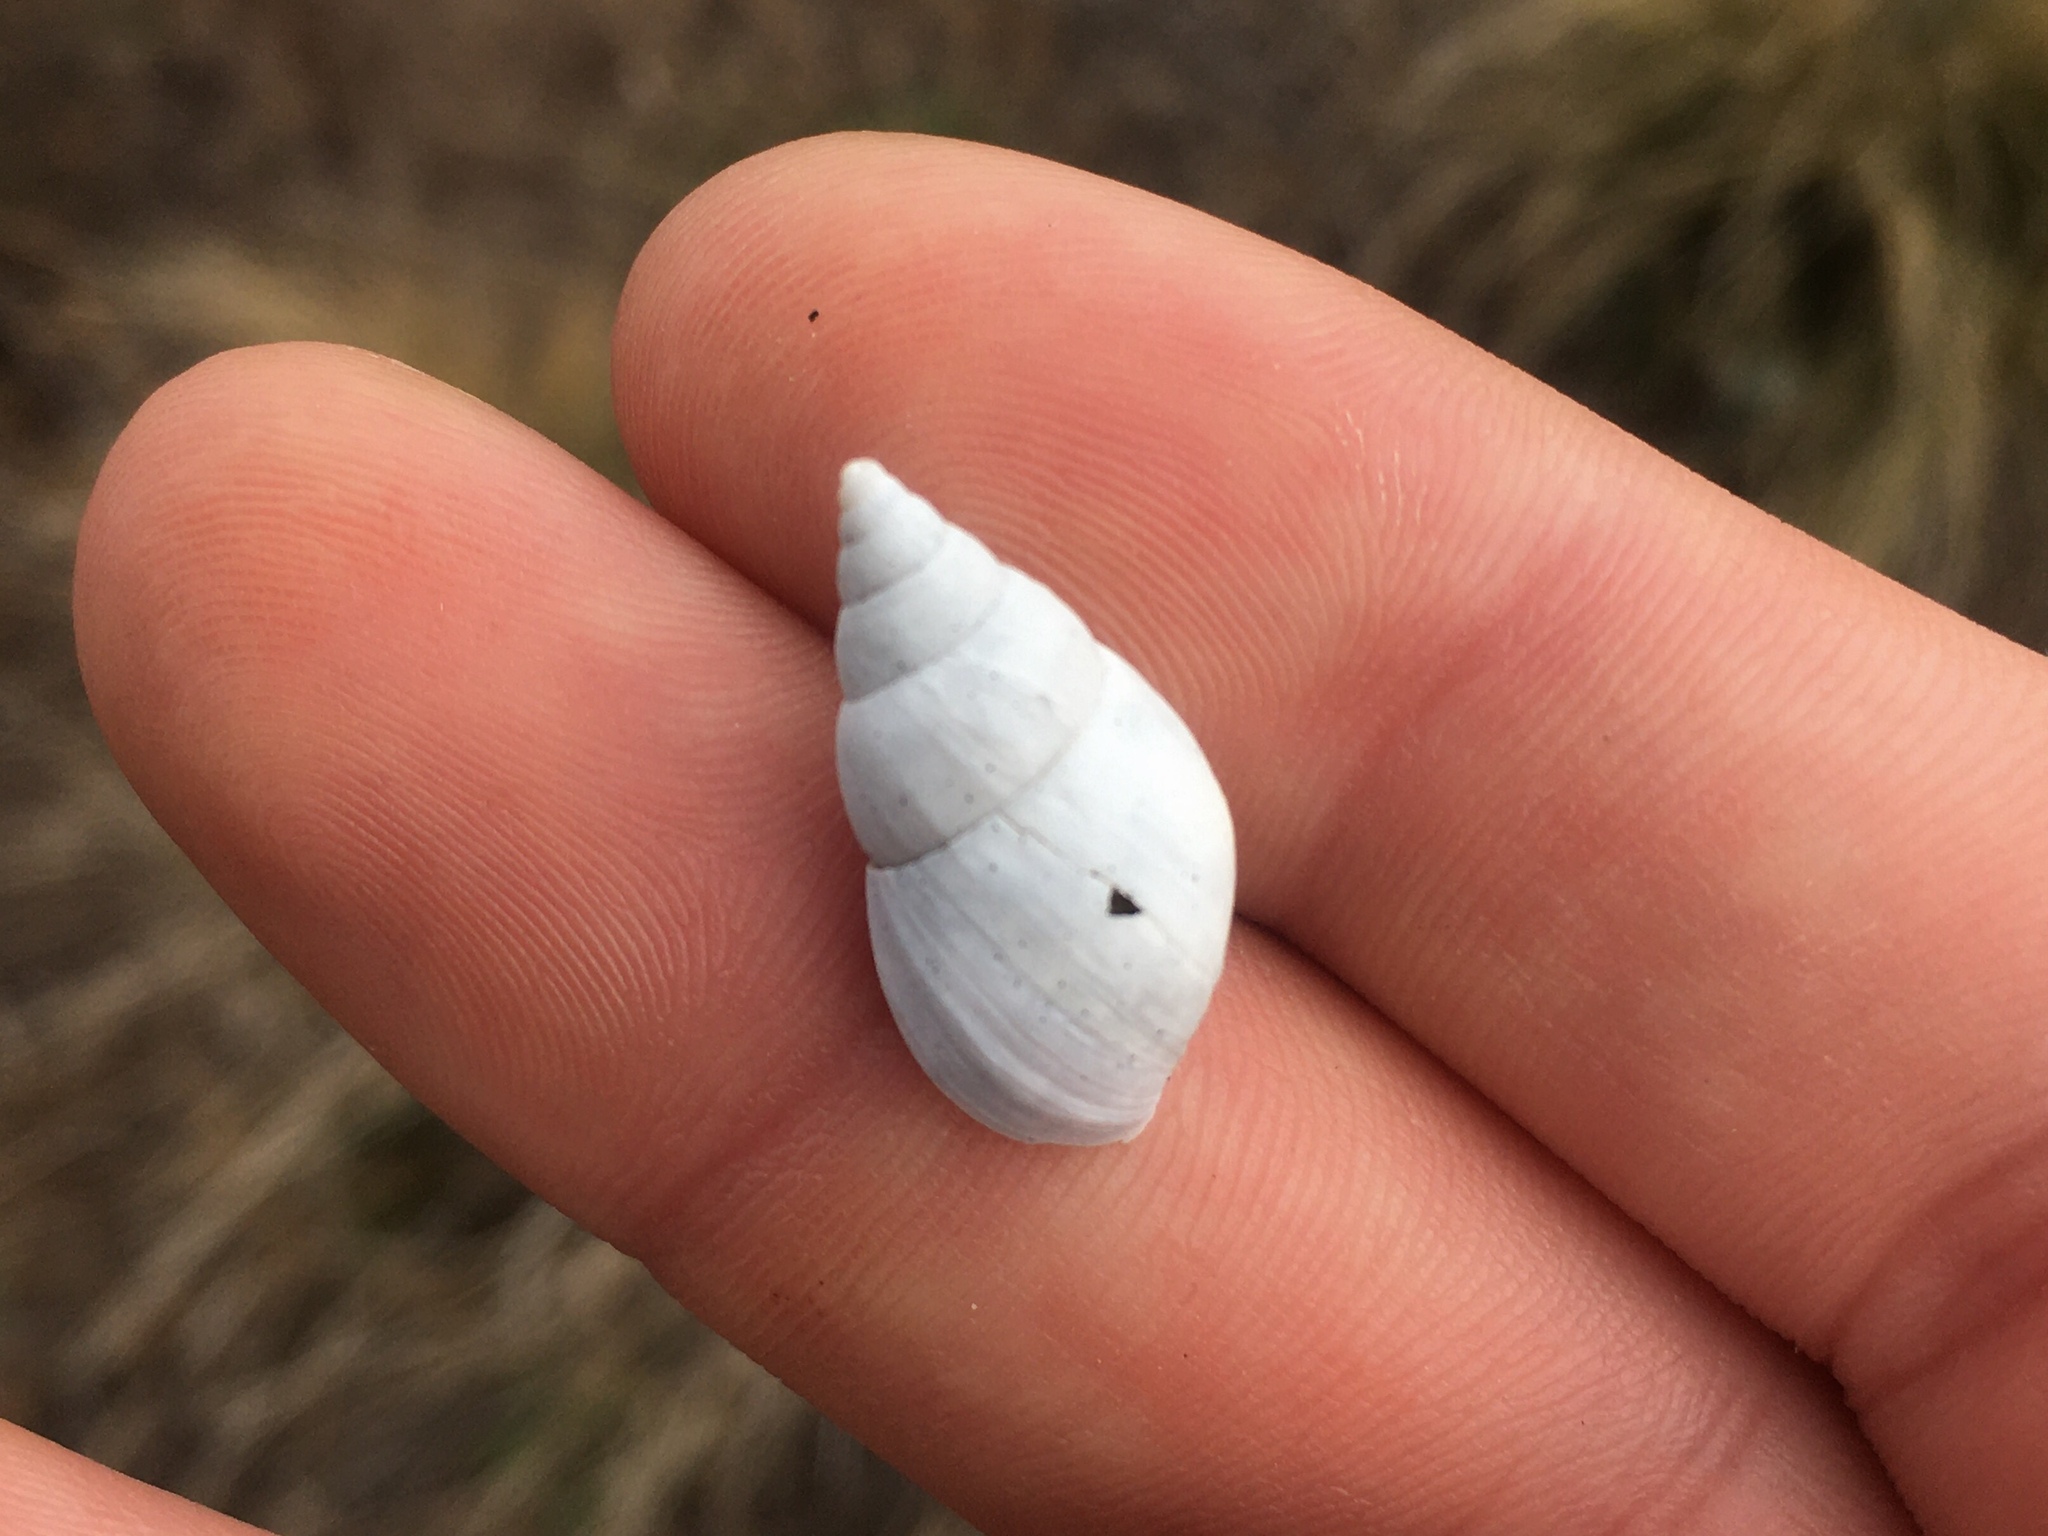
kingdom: Animalia
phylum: Mollusca
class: Gastropoda
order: Stylommatophora
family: Bulimulidae
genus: Bulimulus
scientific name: Bulimulus bonariensis
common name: Snail
